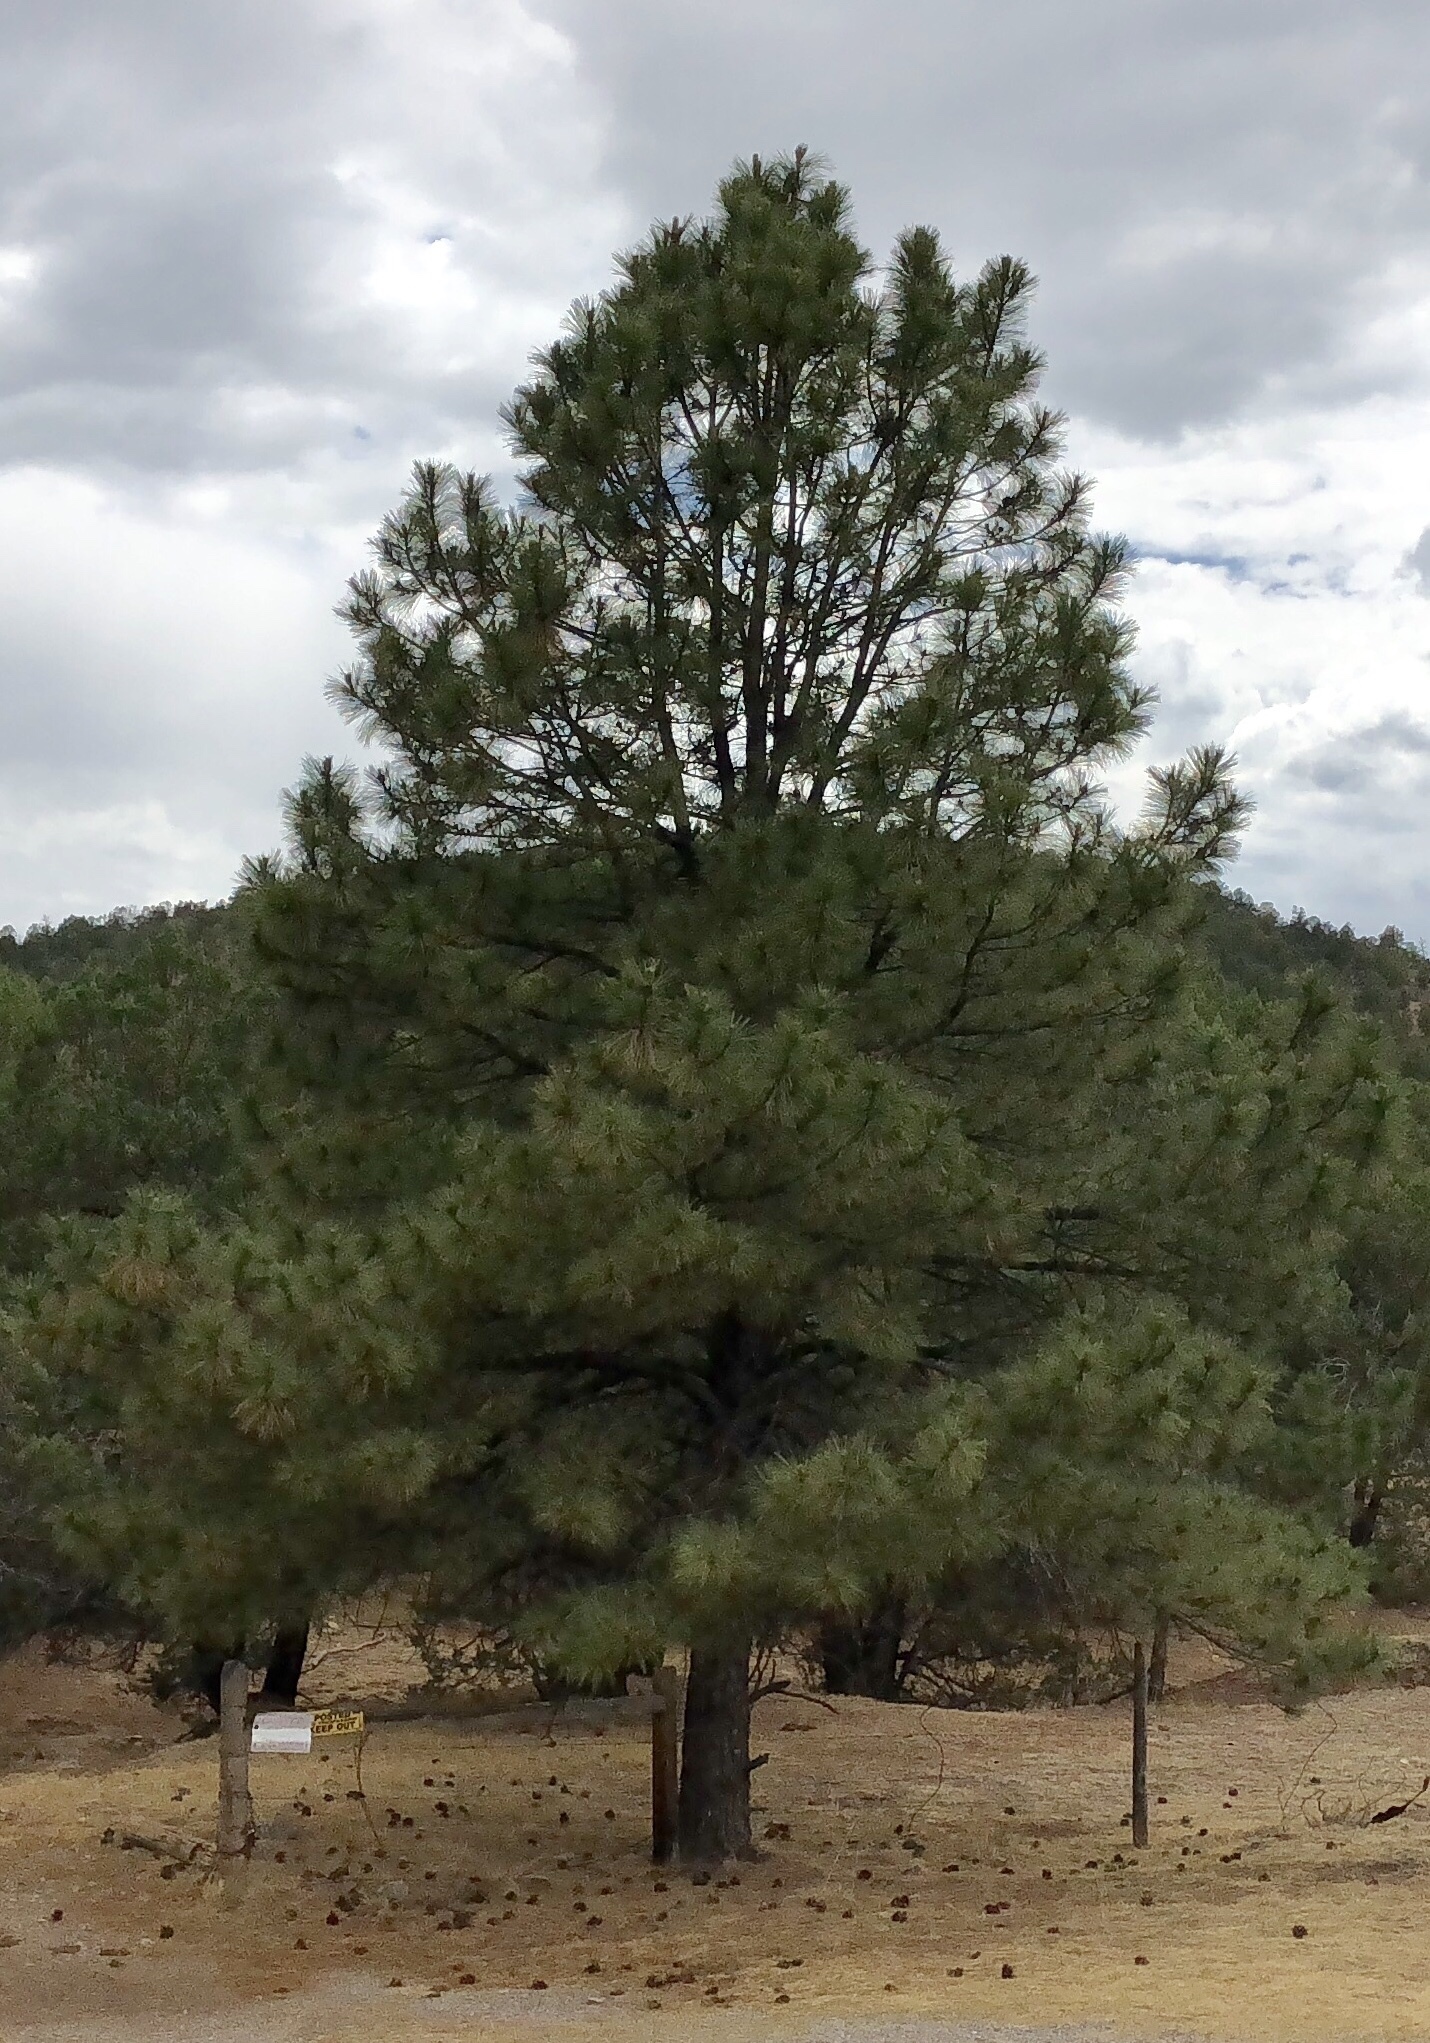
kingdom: Plantae
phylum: Tracheophyta
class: Pinopsida
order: Pinales
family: Pinaceae
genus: Pinus
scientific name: Pinus ponderosa
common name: Western yellow-pine
